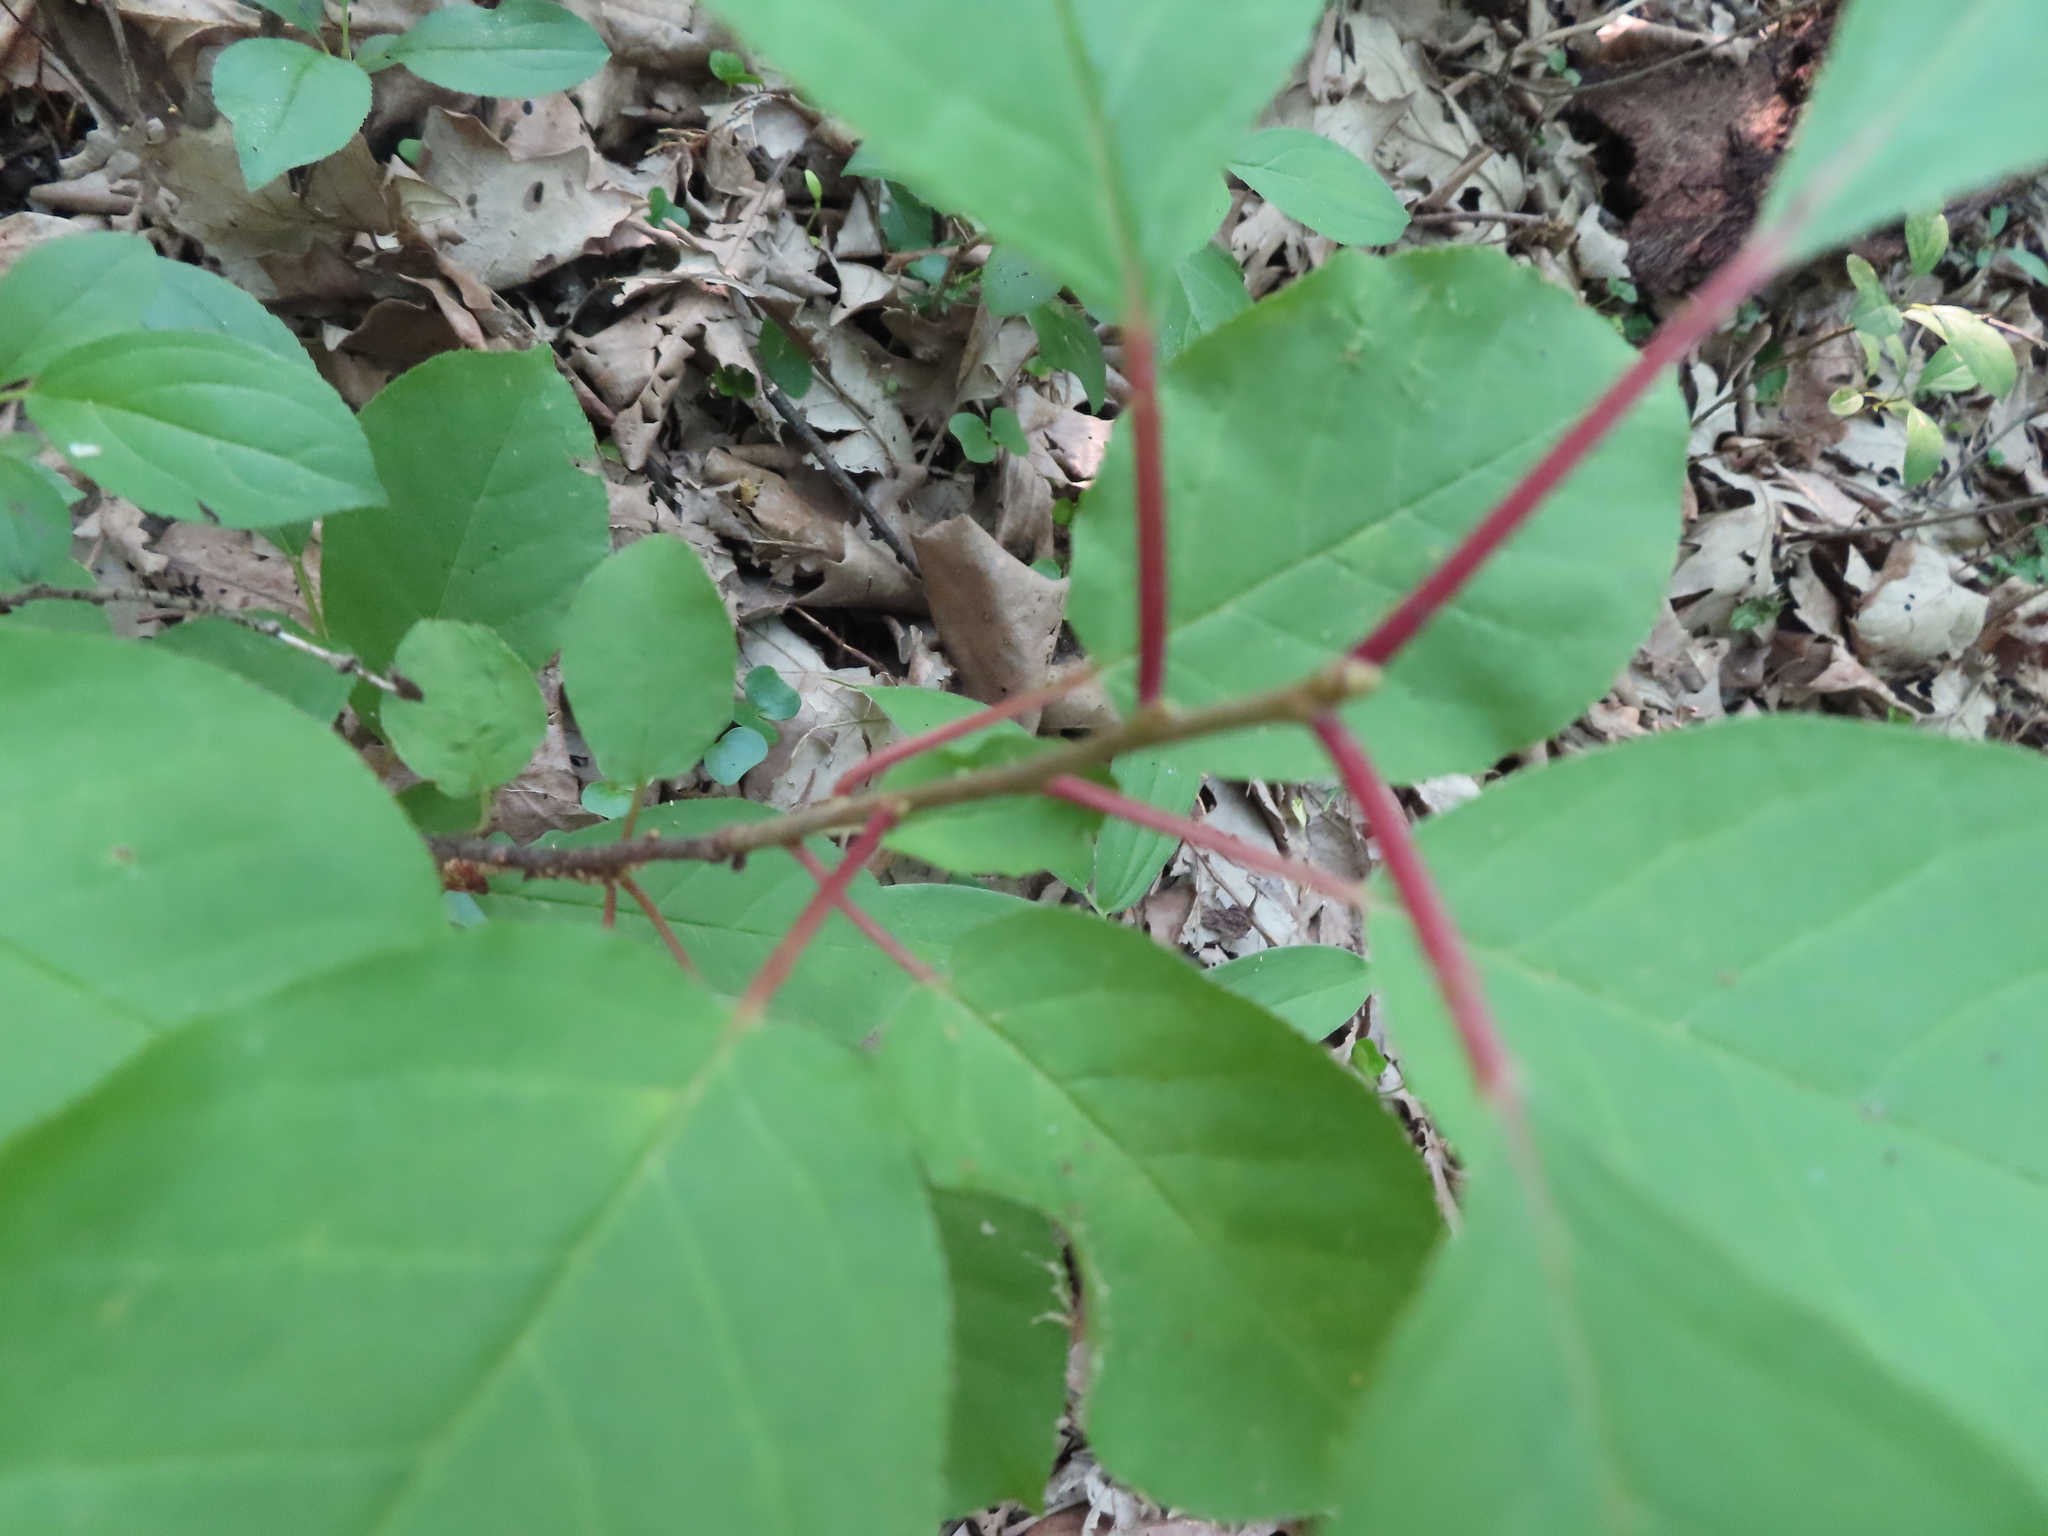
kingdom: Plantae
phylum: Tracheophyta
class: Magnoliopsida
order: Rosales
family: Rosaceae
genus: Prunus
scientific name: Prunus virginiana
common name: Chokecherry
